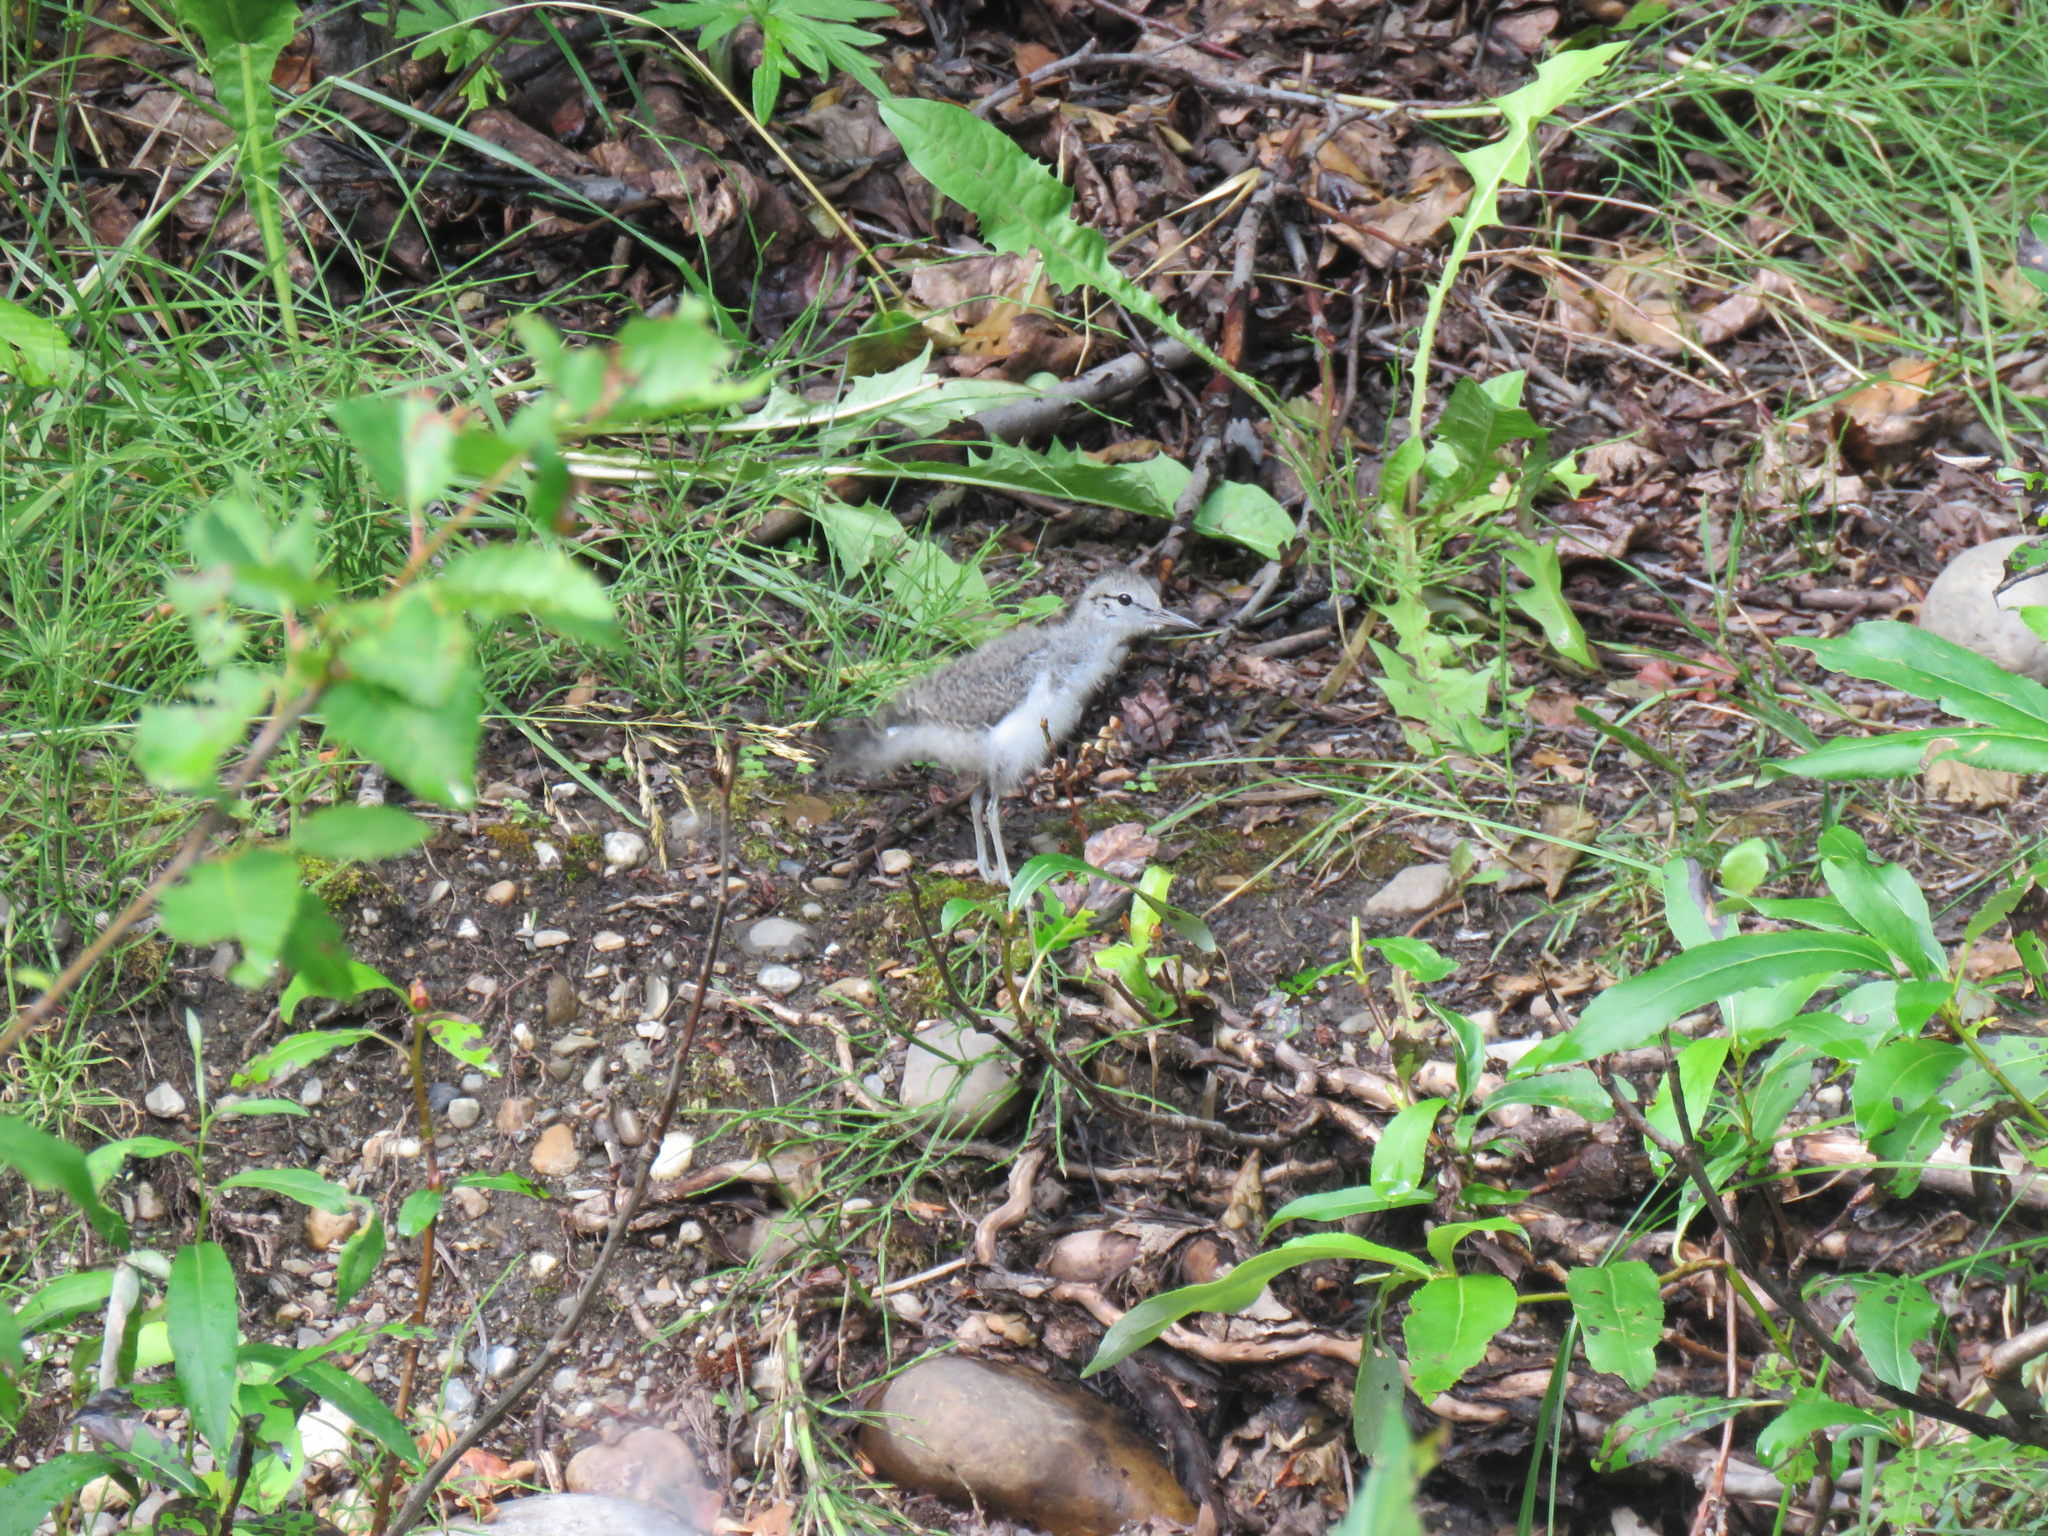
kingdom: Animalia
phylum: Chordata
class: Aves
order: Charadriiformes
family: Scolopacidae
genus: Actitis
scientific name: Actitis macularius
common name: Spotted sandpiper
